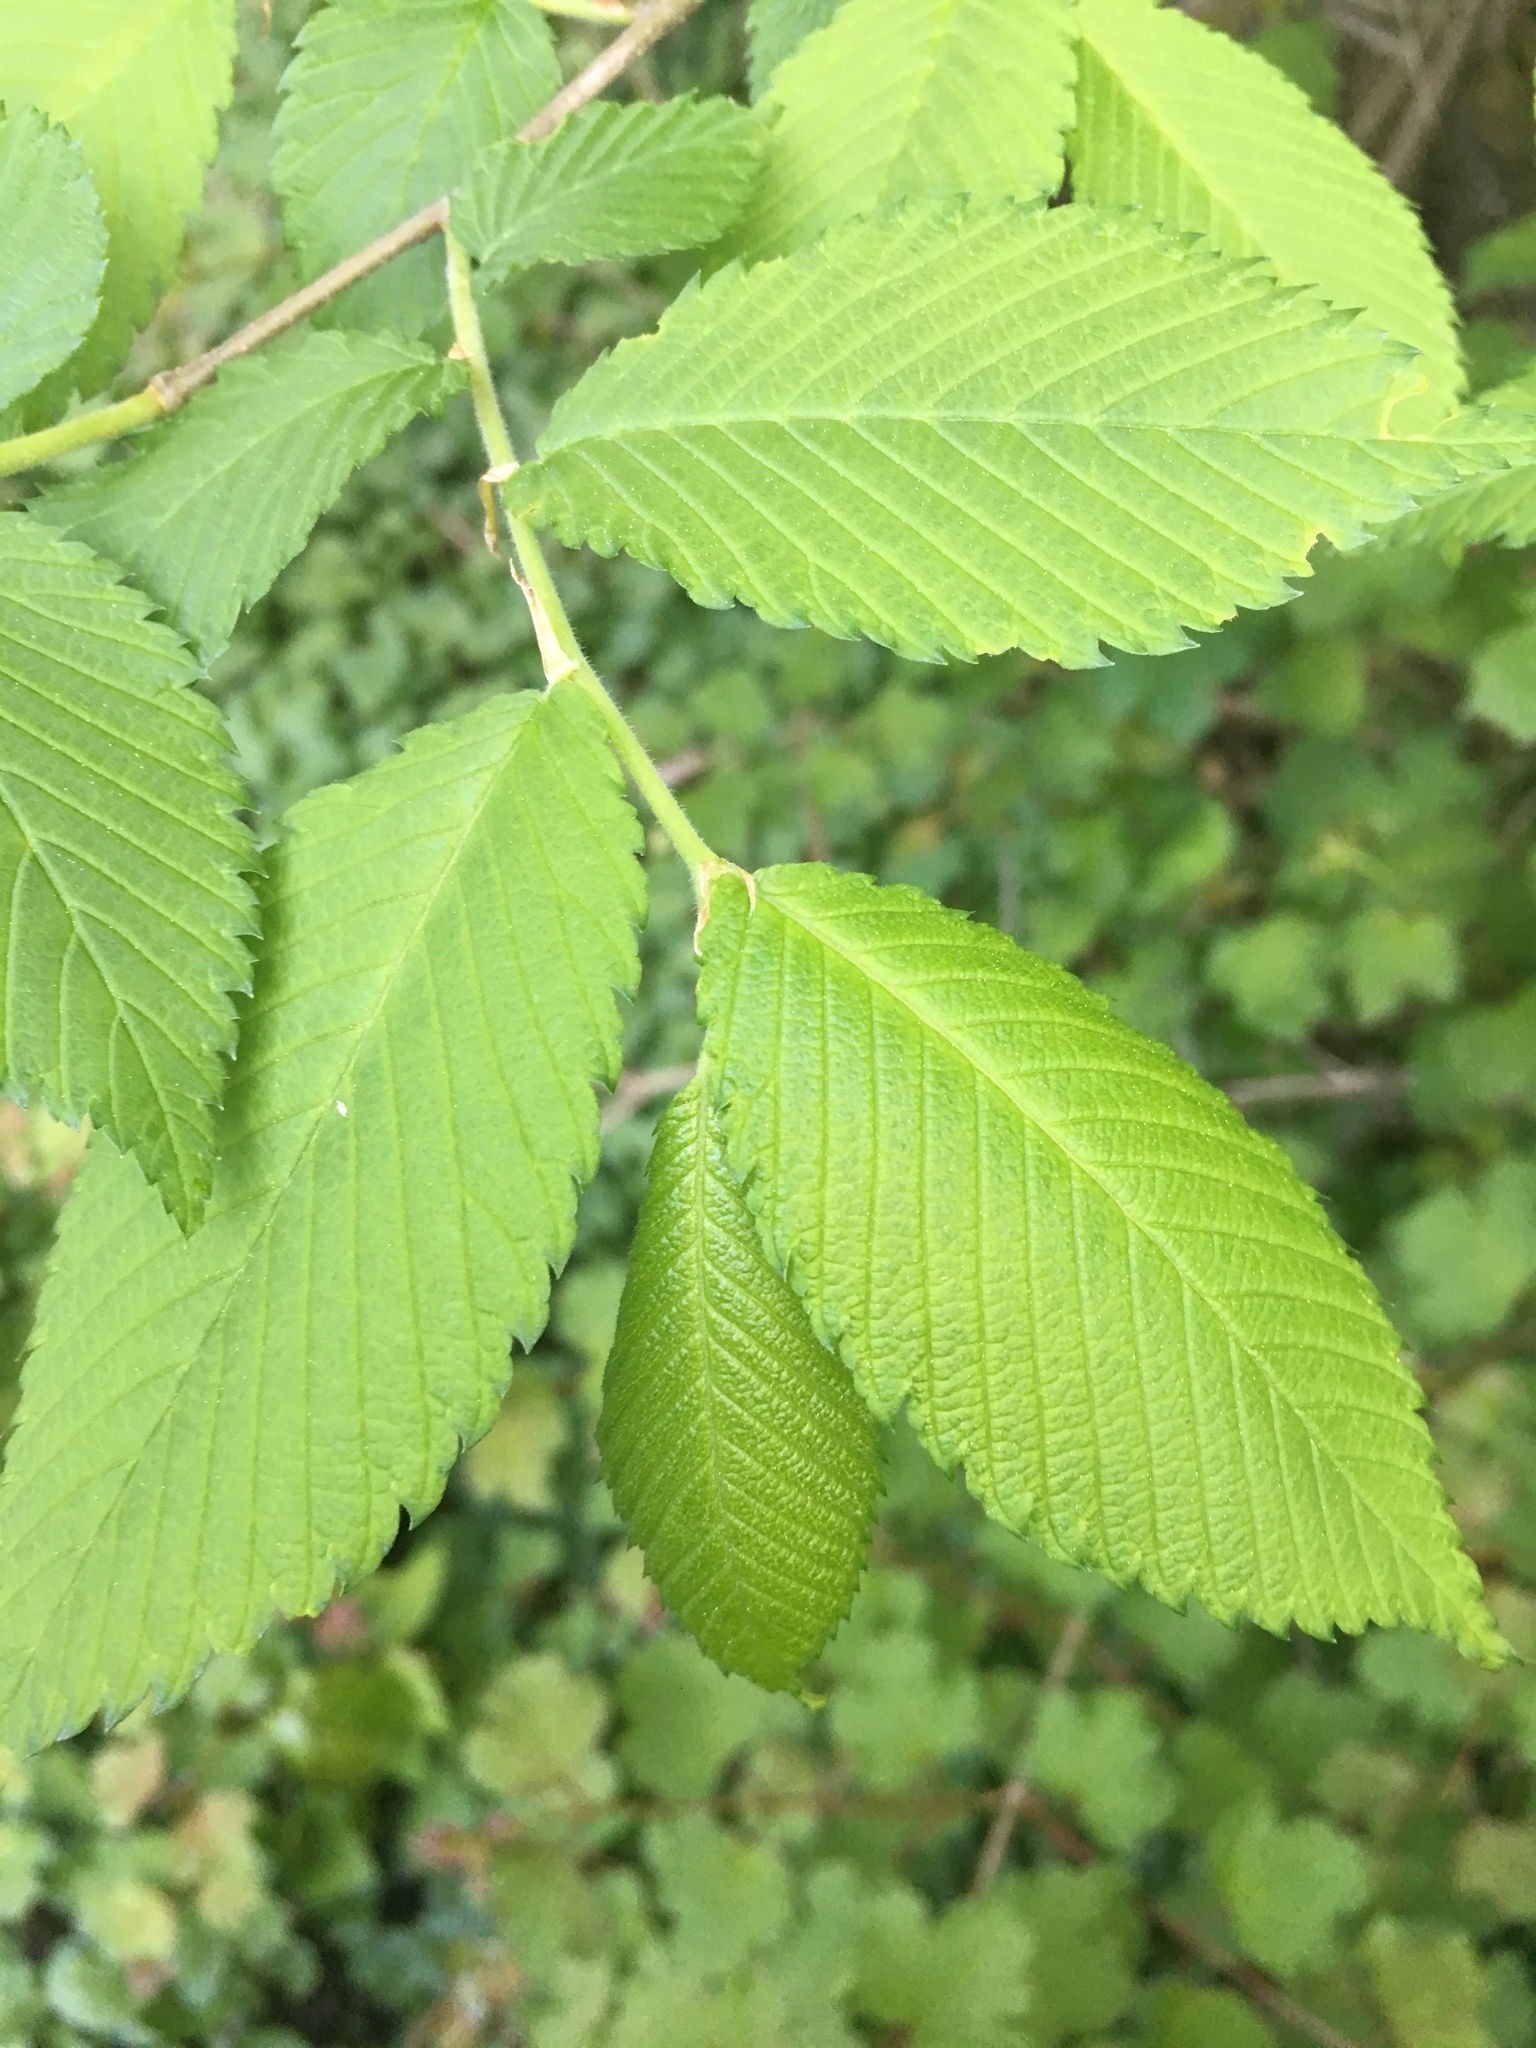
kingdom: Plantae
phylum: Tracheophyta
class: Magnoliopsida
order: Rosales
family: Ulmaceae
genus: Ulmus
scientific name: Ulmus americana
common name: American elm
